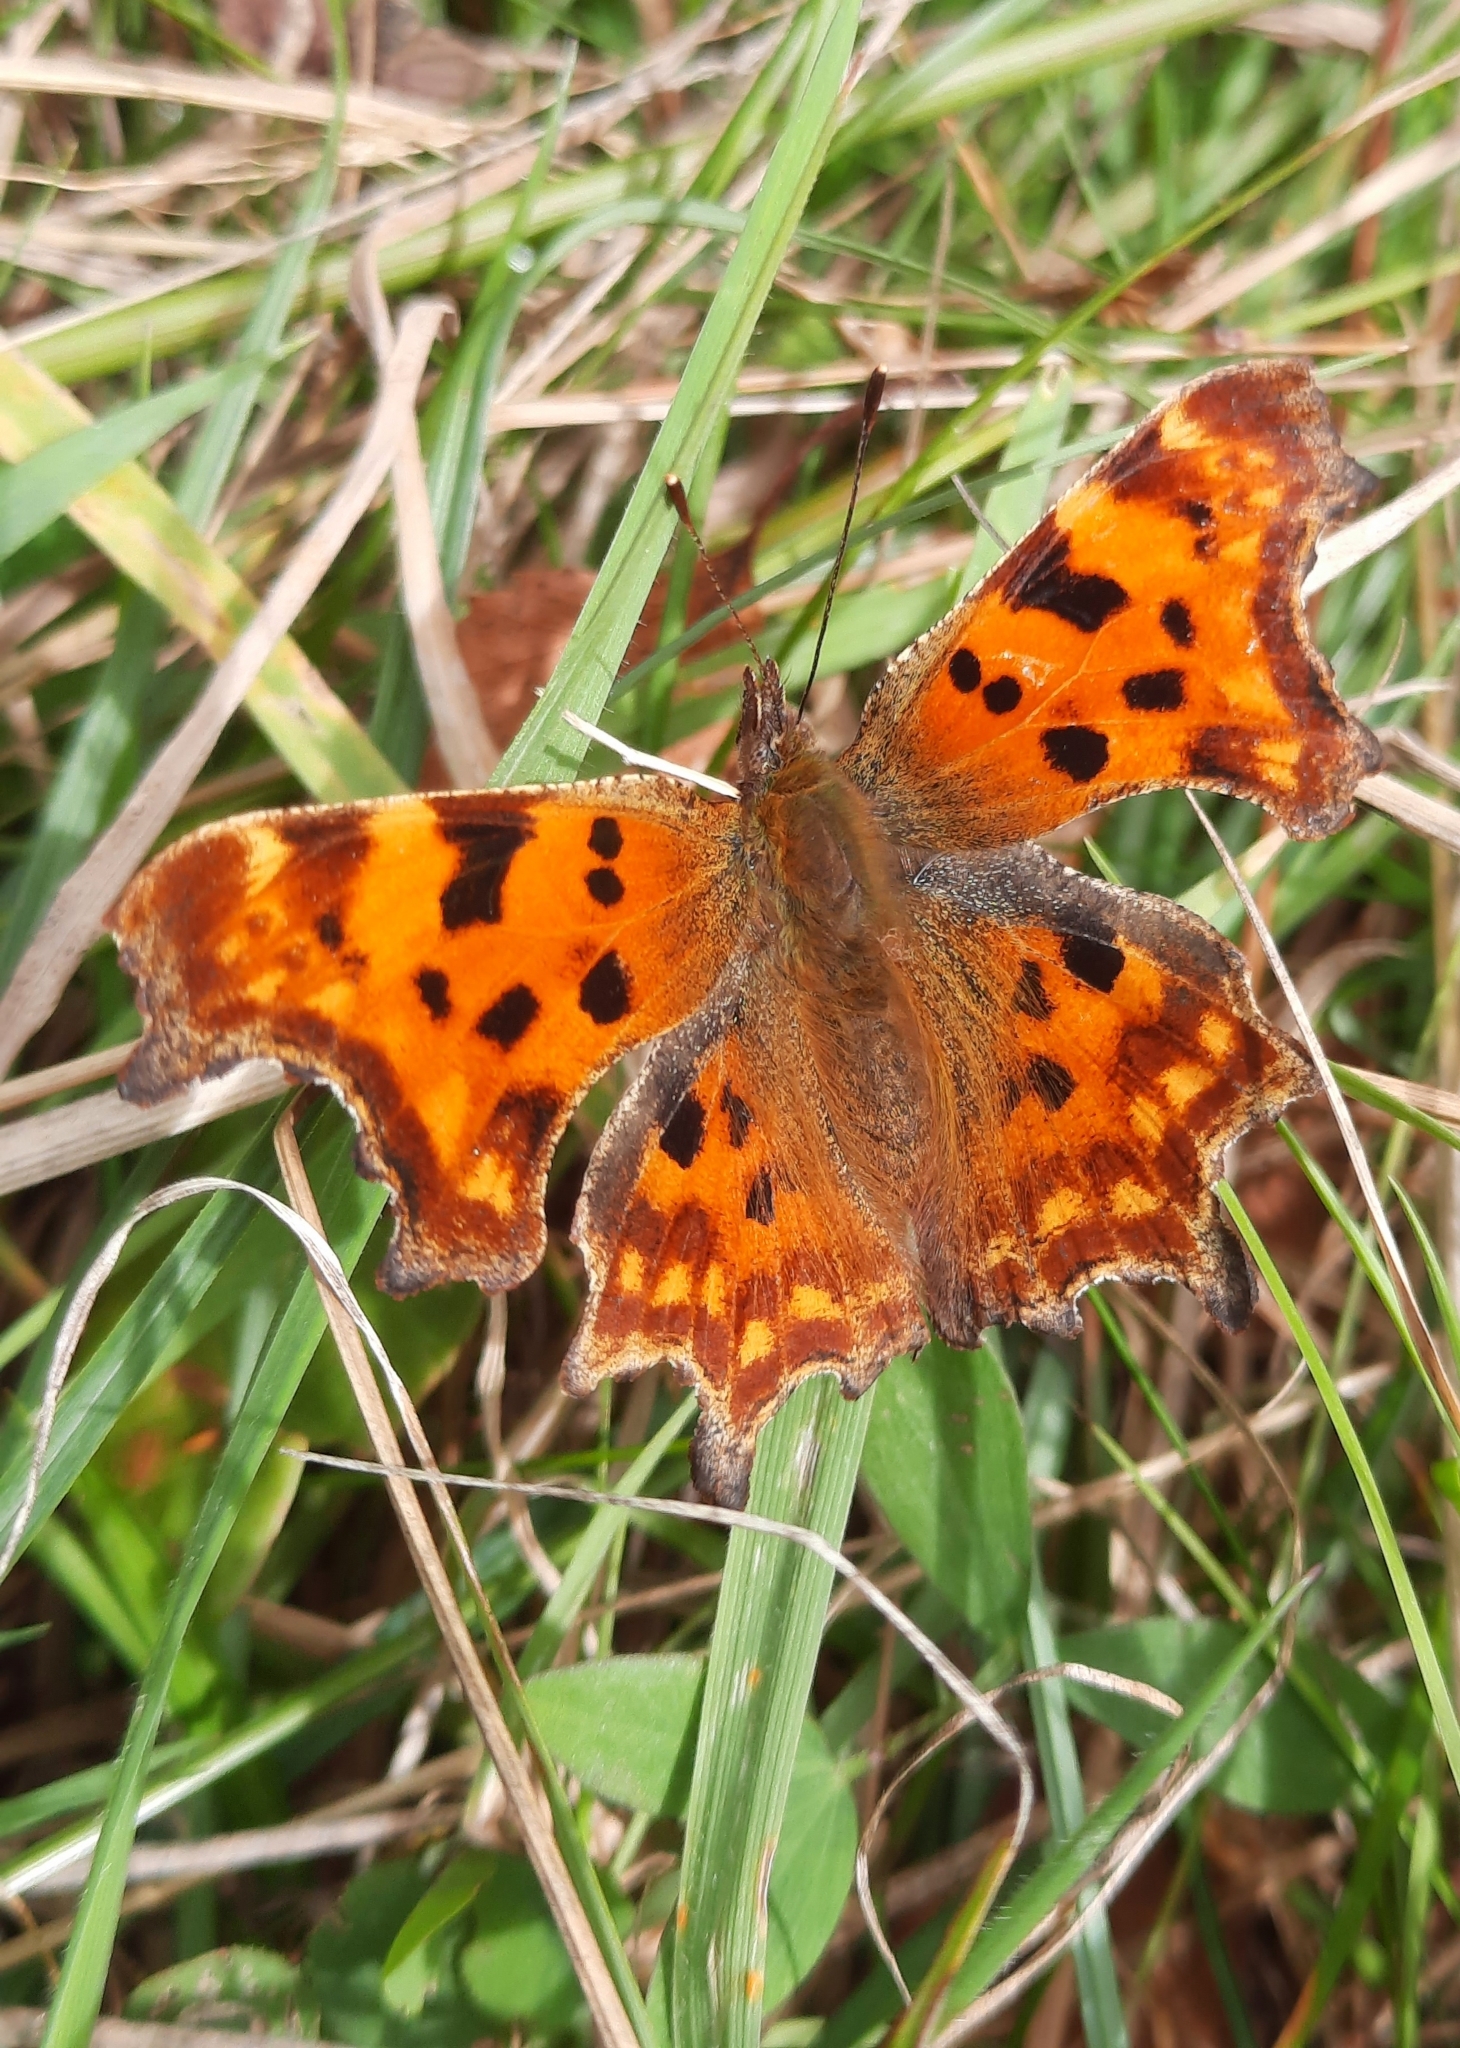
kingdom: Animalia
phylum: Arthropoda
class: Insecta
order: Lepidoptera
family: Nymphalidae
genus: Polygonia
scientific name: Polygonia c-album
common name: Comma
